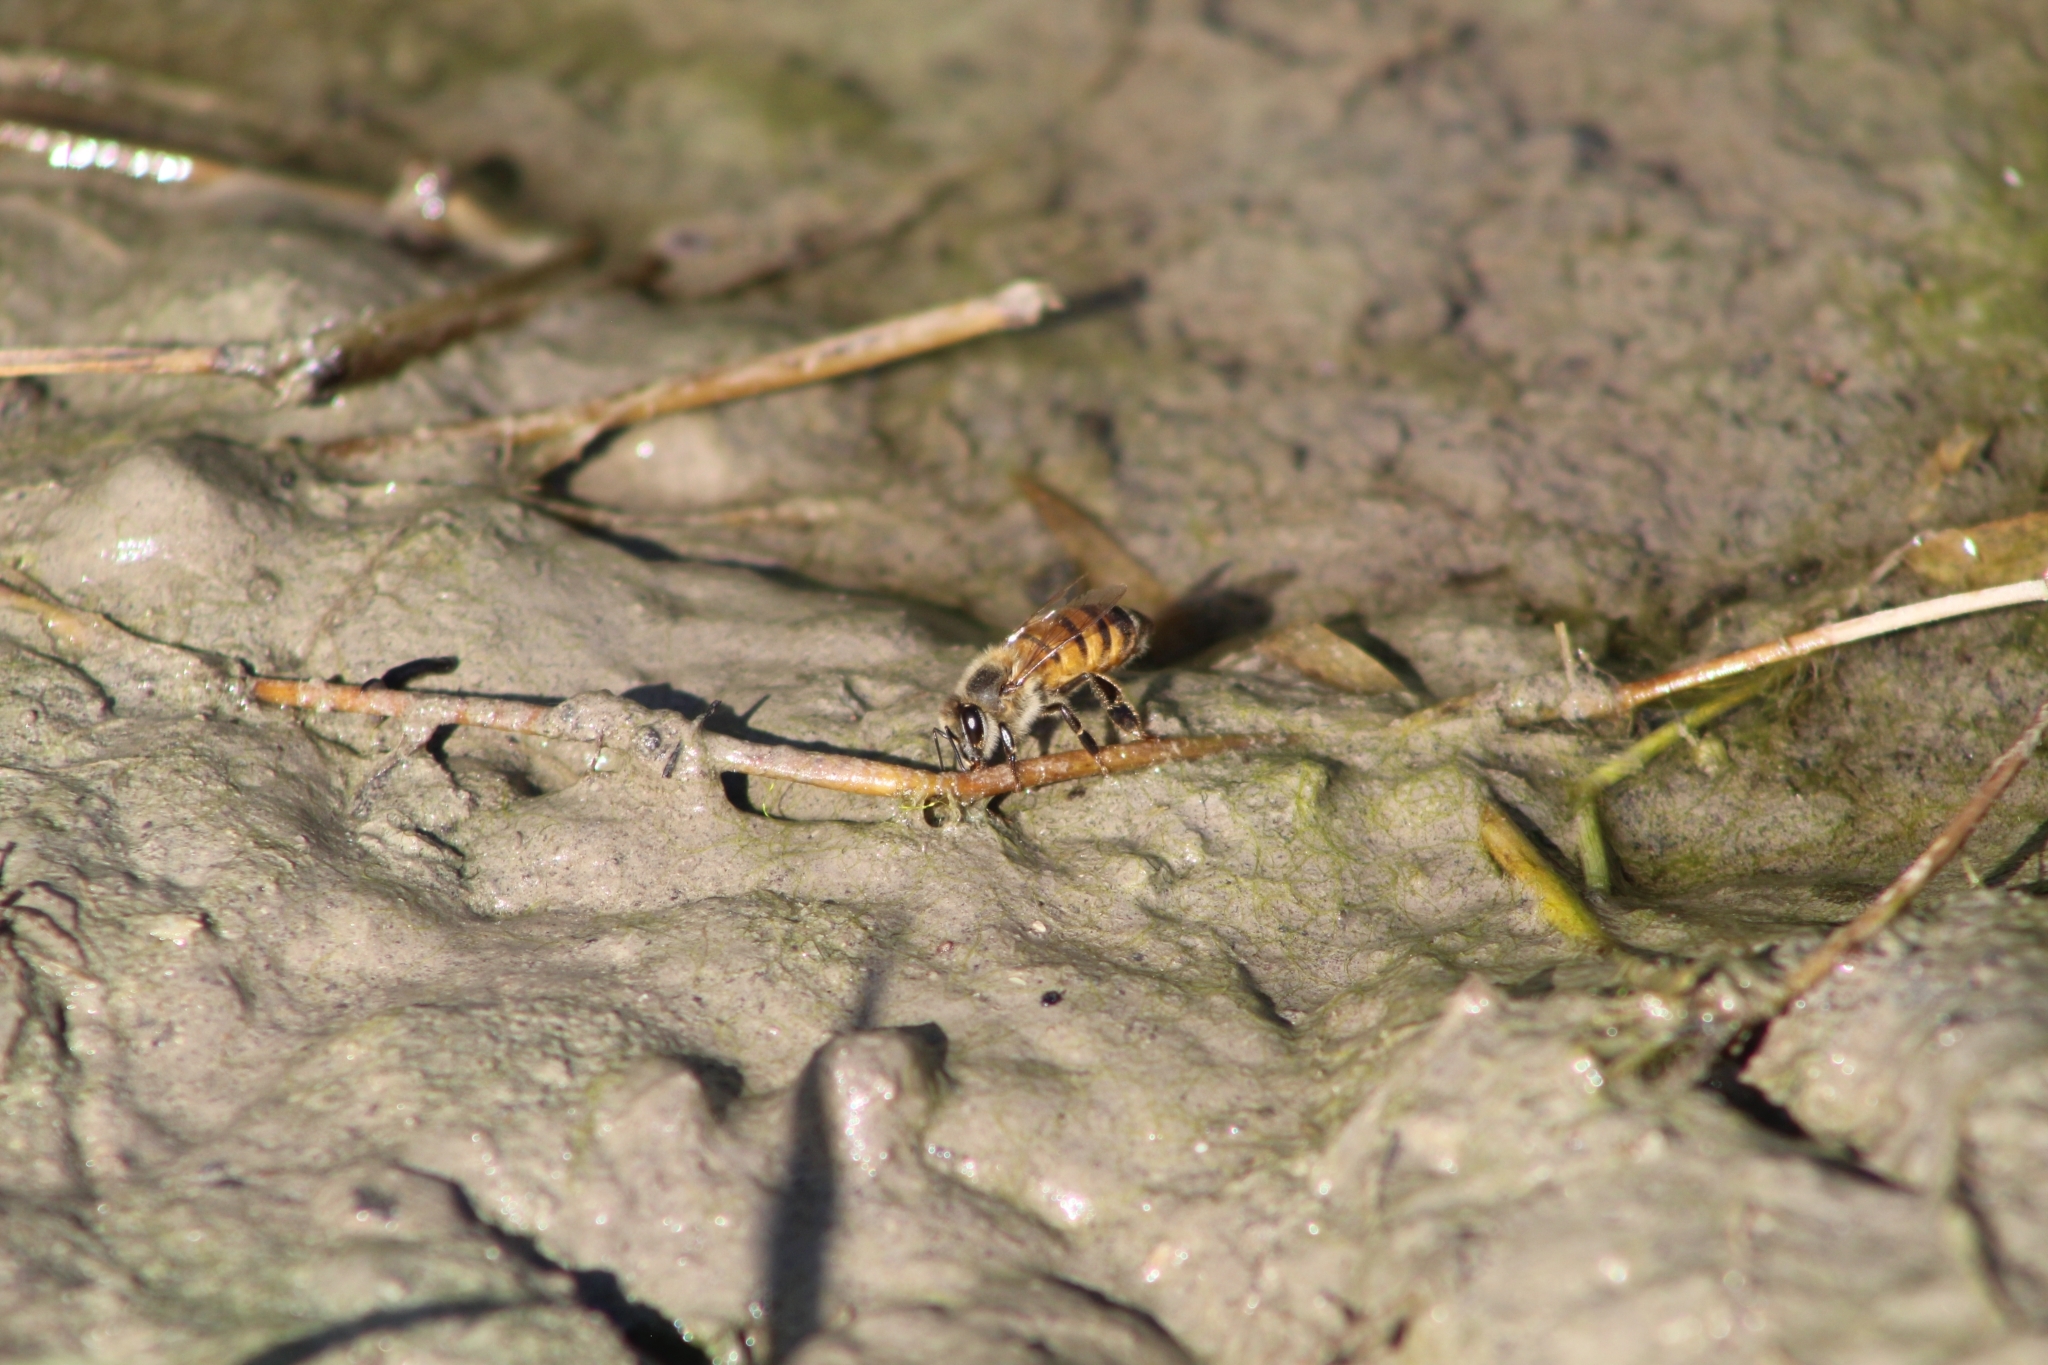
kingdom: Animalia
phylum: Arthropoda
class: Insecta
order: Hymenoptera
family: Apidae
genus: Apis
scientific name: Apis mellifera
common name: Honey bee
